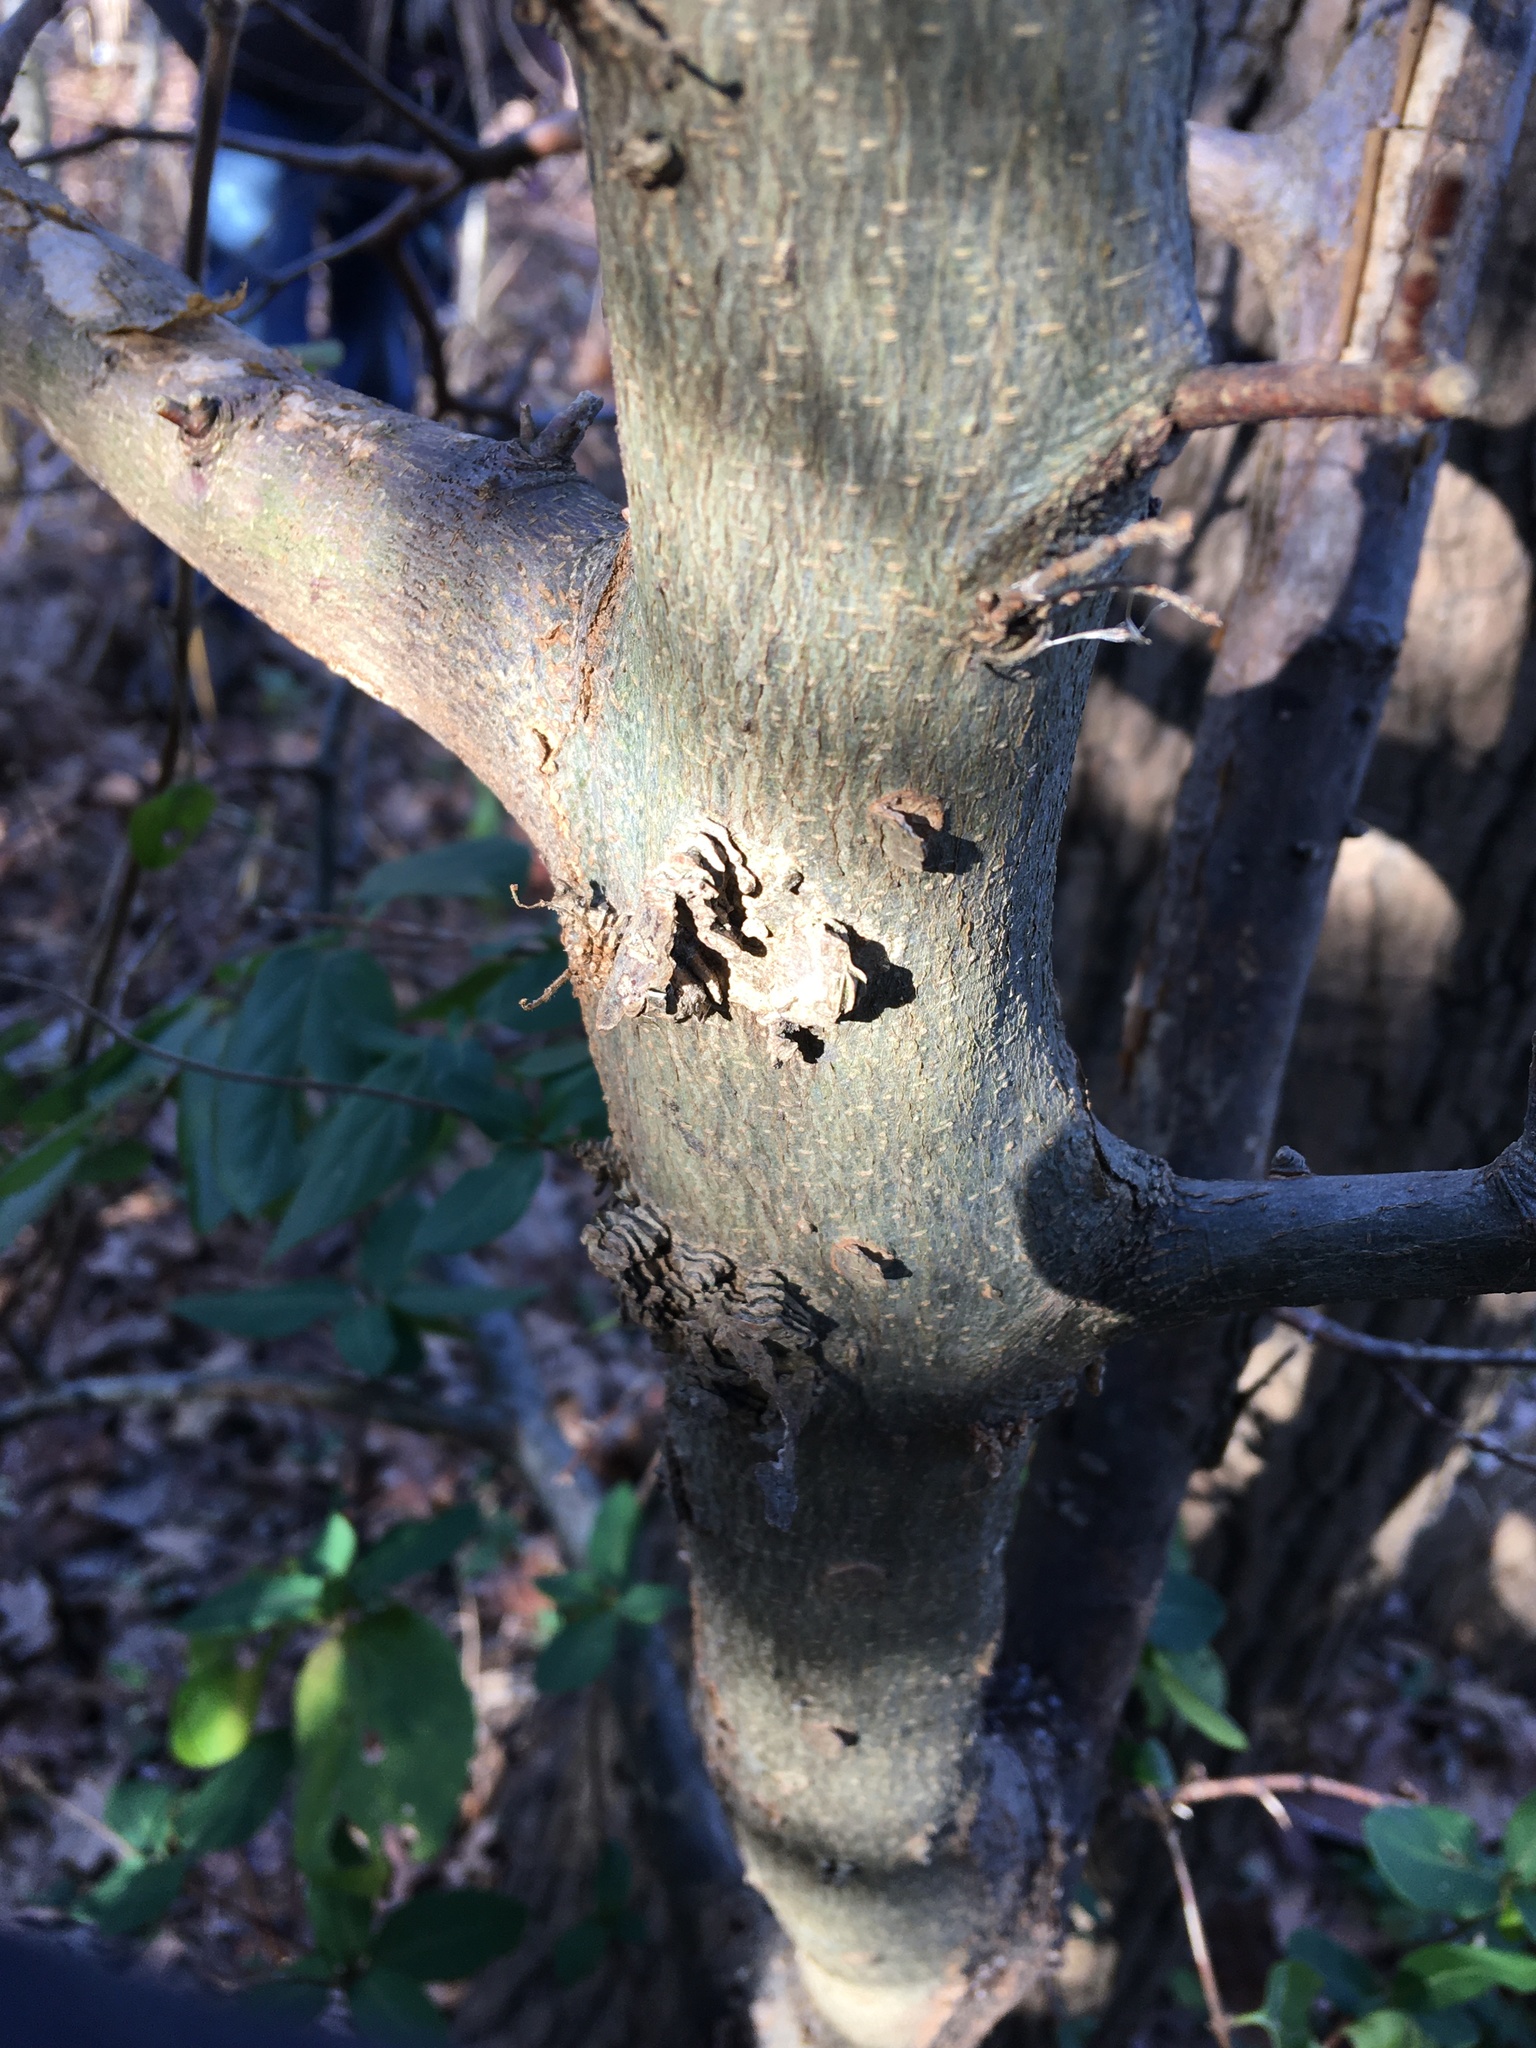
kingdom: Plantae
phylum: Tracheophyta
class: Magnoliopsida
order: Rosales
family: Cannabaceae
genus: Celtis
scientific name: Celtis occidentalis
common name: Common hackberry
